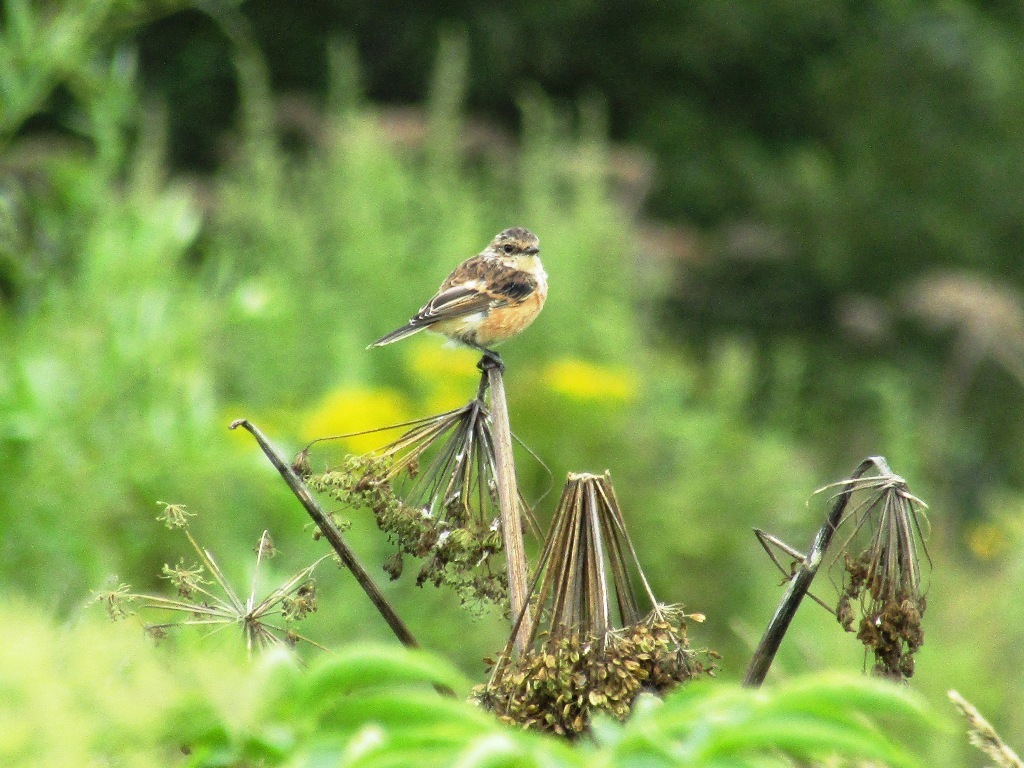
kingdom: Animalia
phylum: Chordata
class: Aves
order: Passeriformes
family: Muscicapidae
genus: Saxicola
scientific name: Saxicola stejnegeri
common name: Stejneger's stonechat
